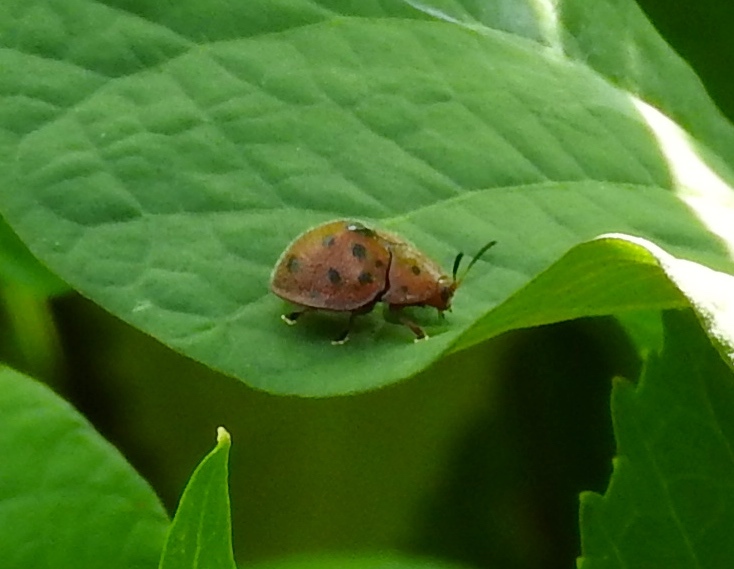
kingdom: Animalia
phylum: Arthropoda
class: Insecta
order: Coleoptera
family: Chrysomelidae
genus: Chelymorpha
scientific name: Chelymorpha
